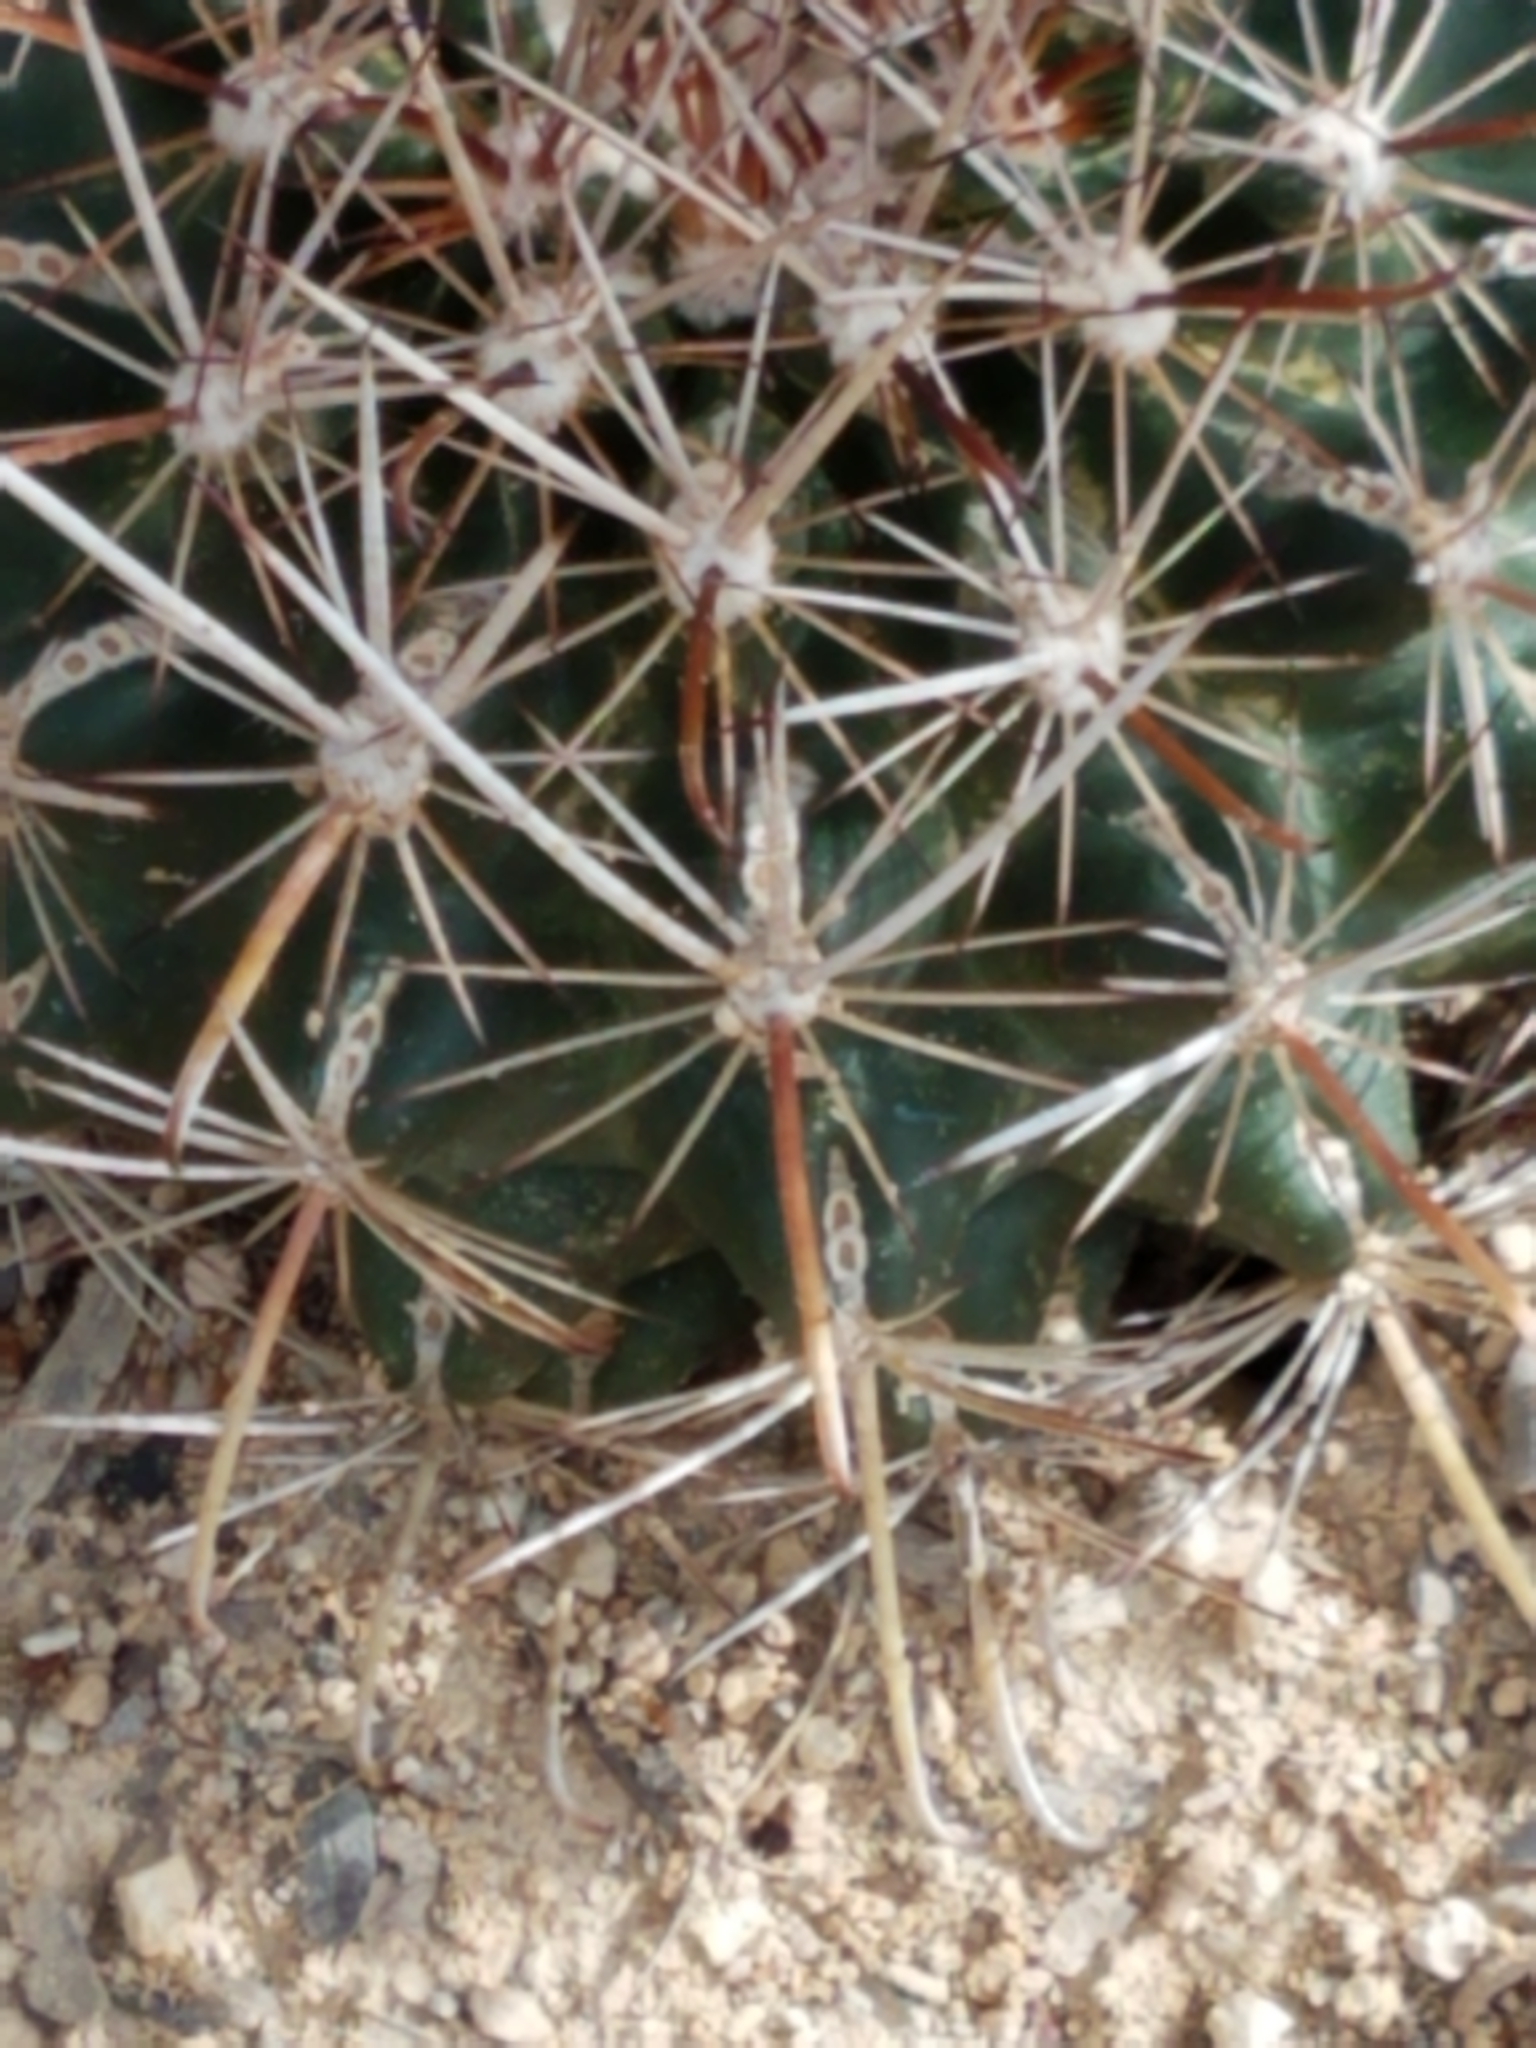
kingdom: Plantae
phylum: Tracheophyta
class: Magnoliopsida
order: Caryophyllales
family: Cactaceae
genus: Sclerocactus
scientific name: Sclerocactus brevihamatus
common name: Engelmann's fishhook cactus
